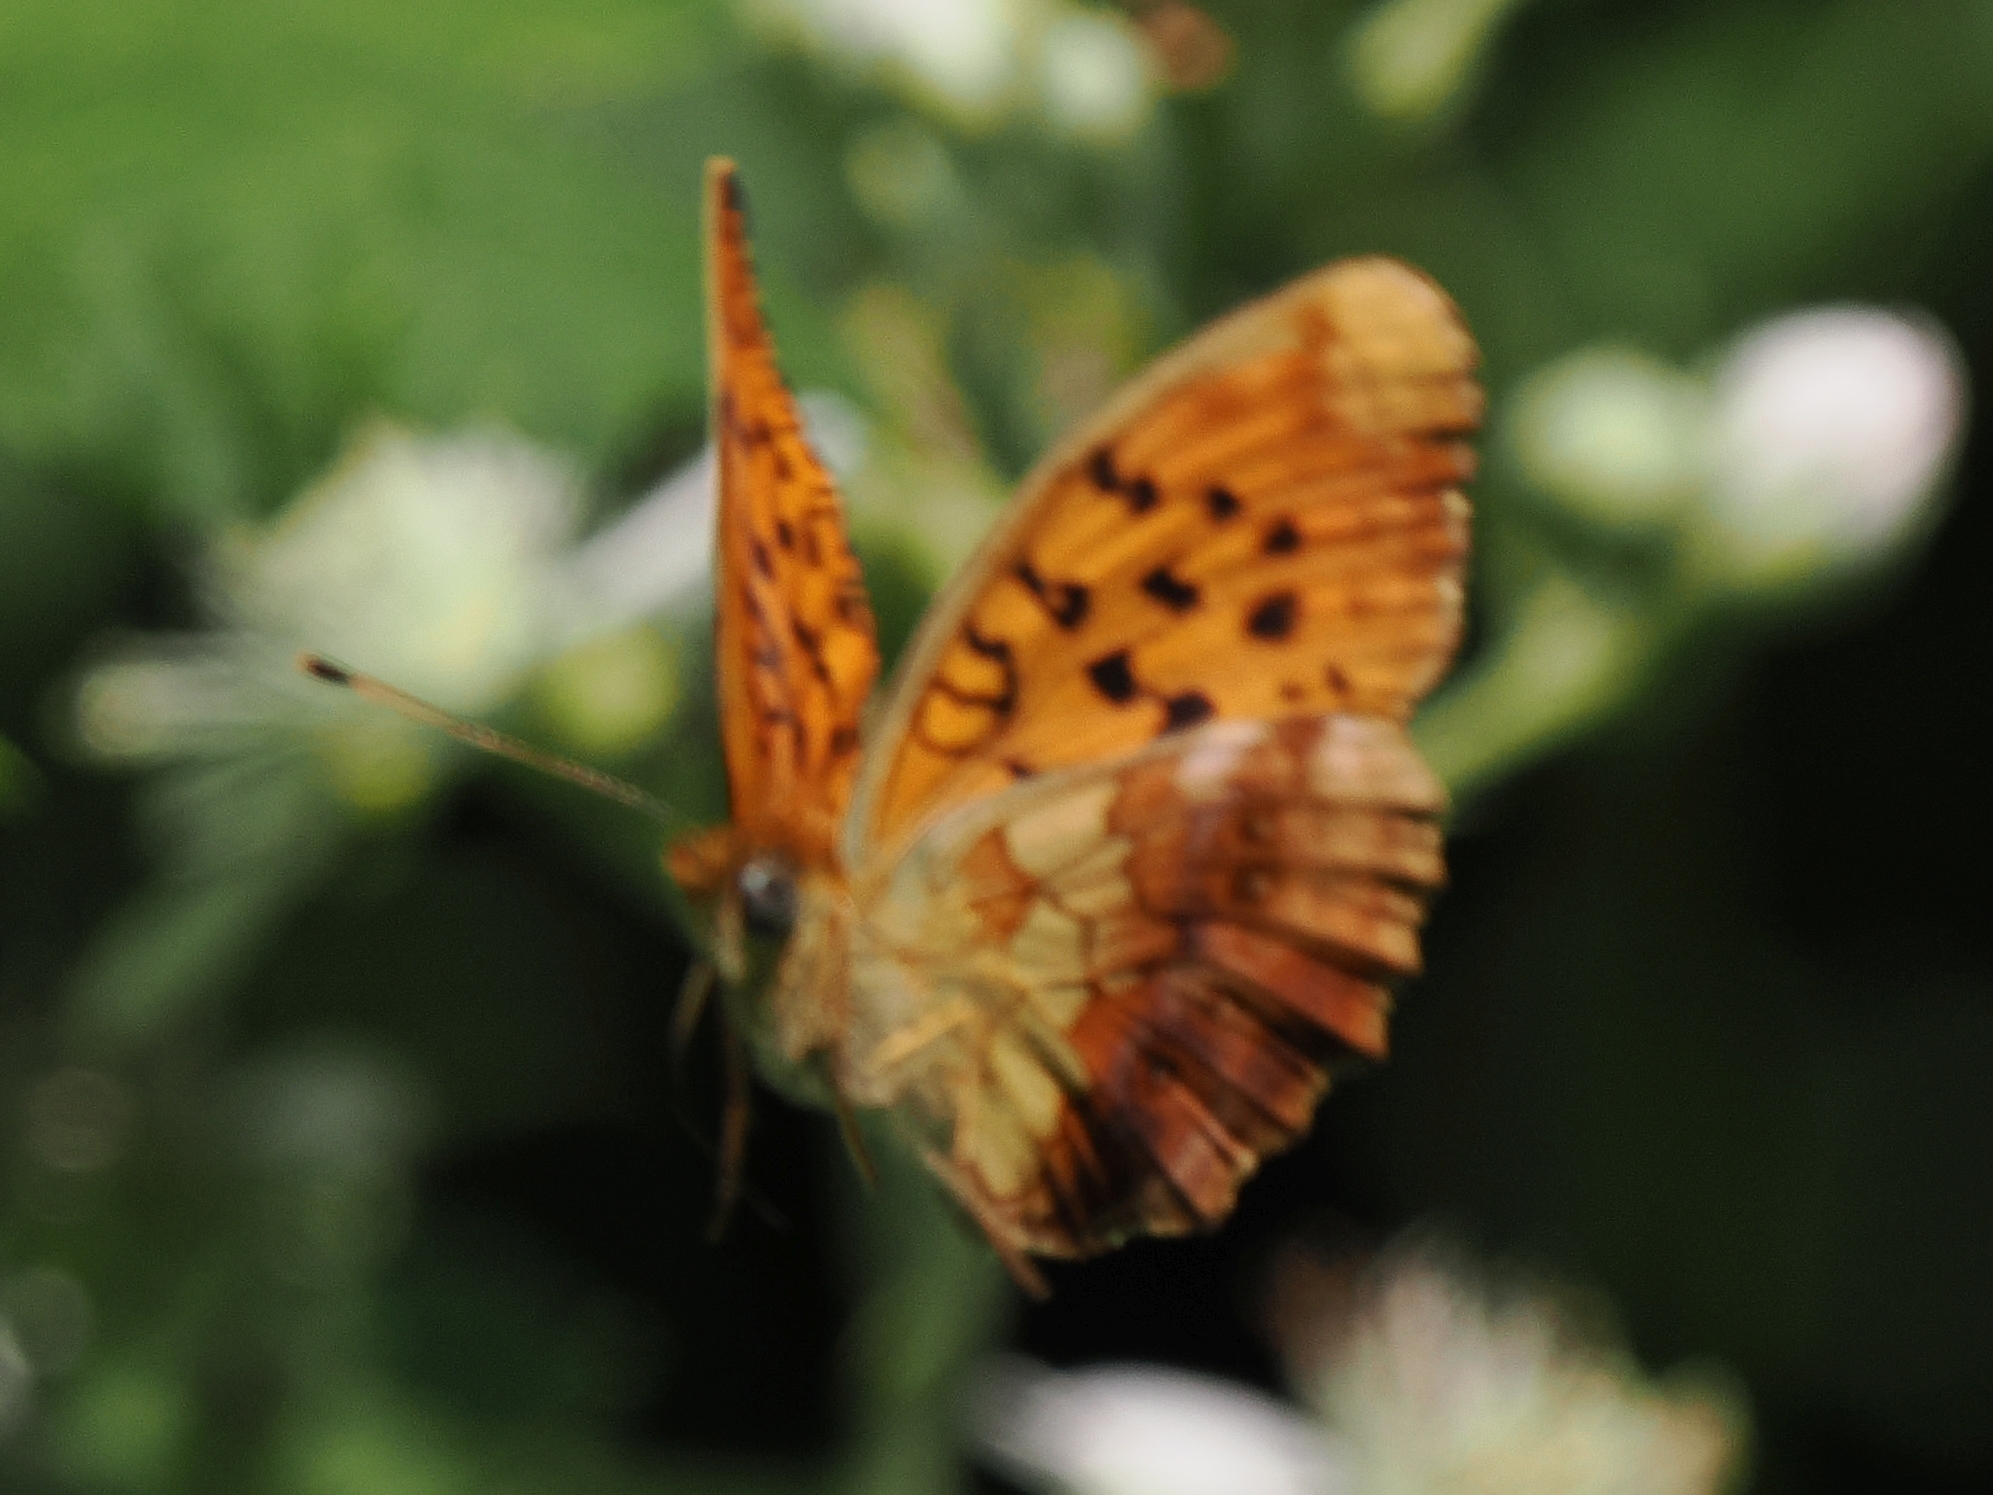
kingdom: Animalia
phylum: Arthropoda
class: Insecta
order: Lepidoptera
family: Nymphalidae
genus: Brenthis
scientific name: Brenthis daphne
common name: Marbled fritillary
